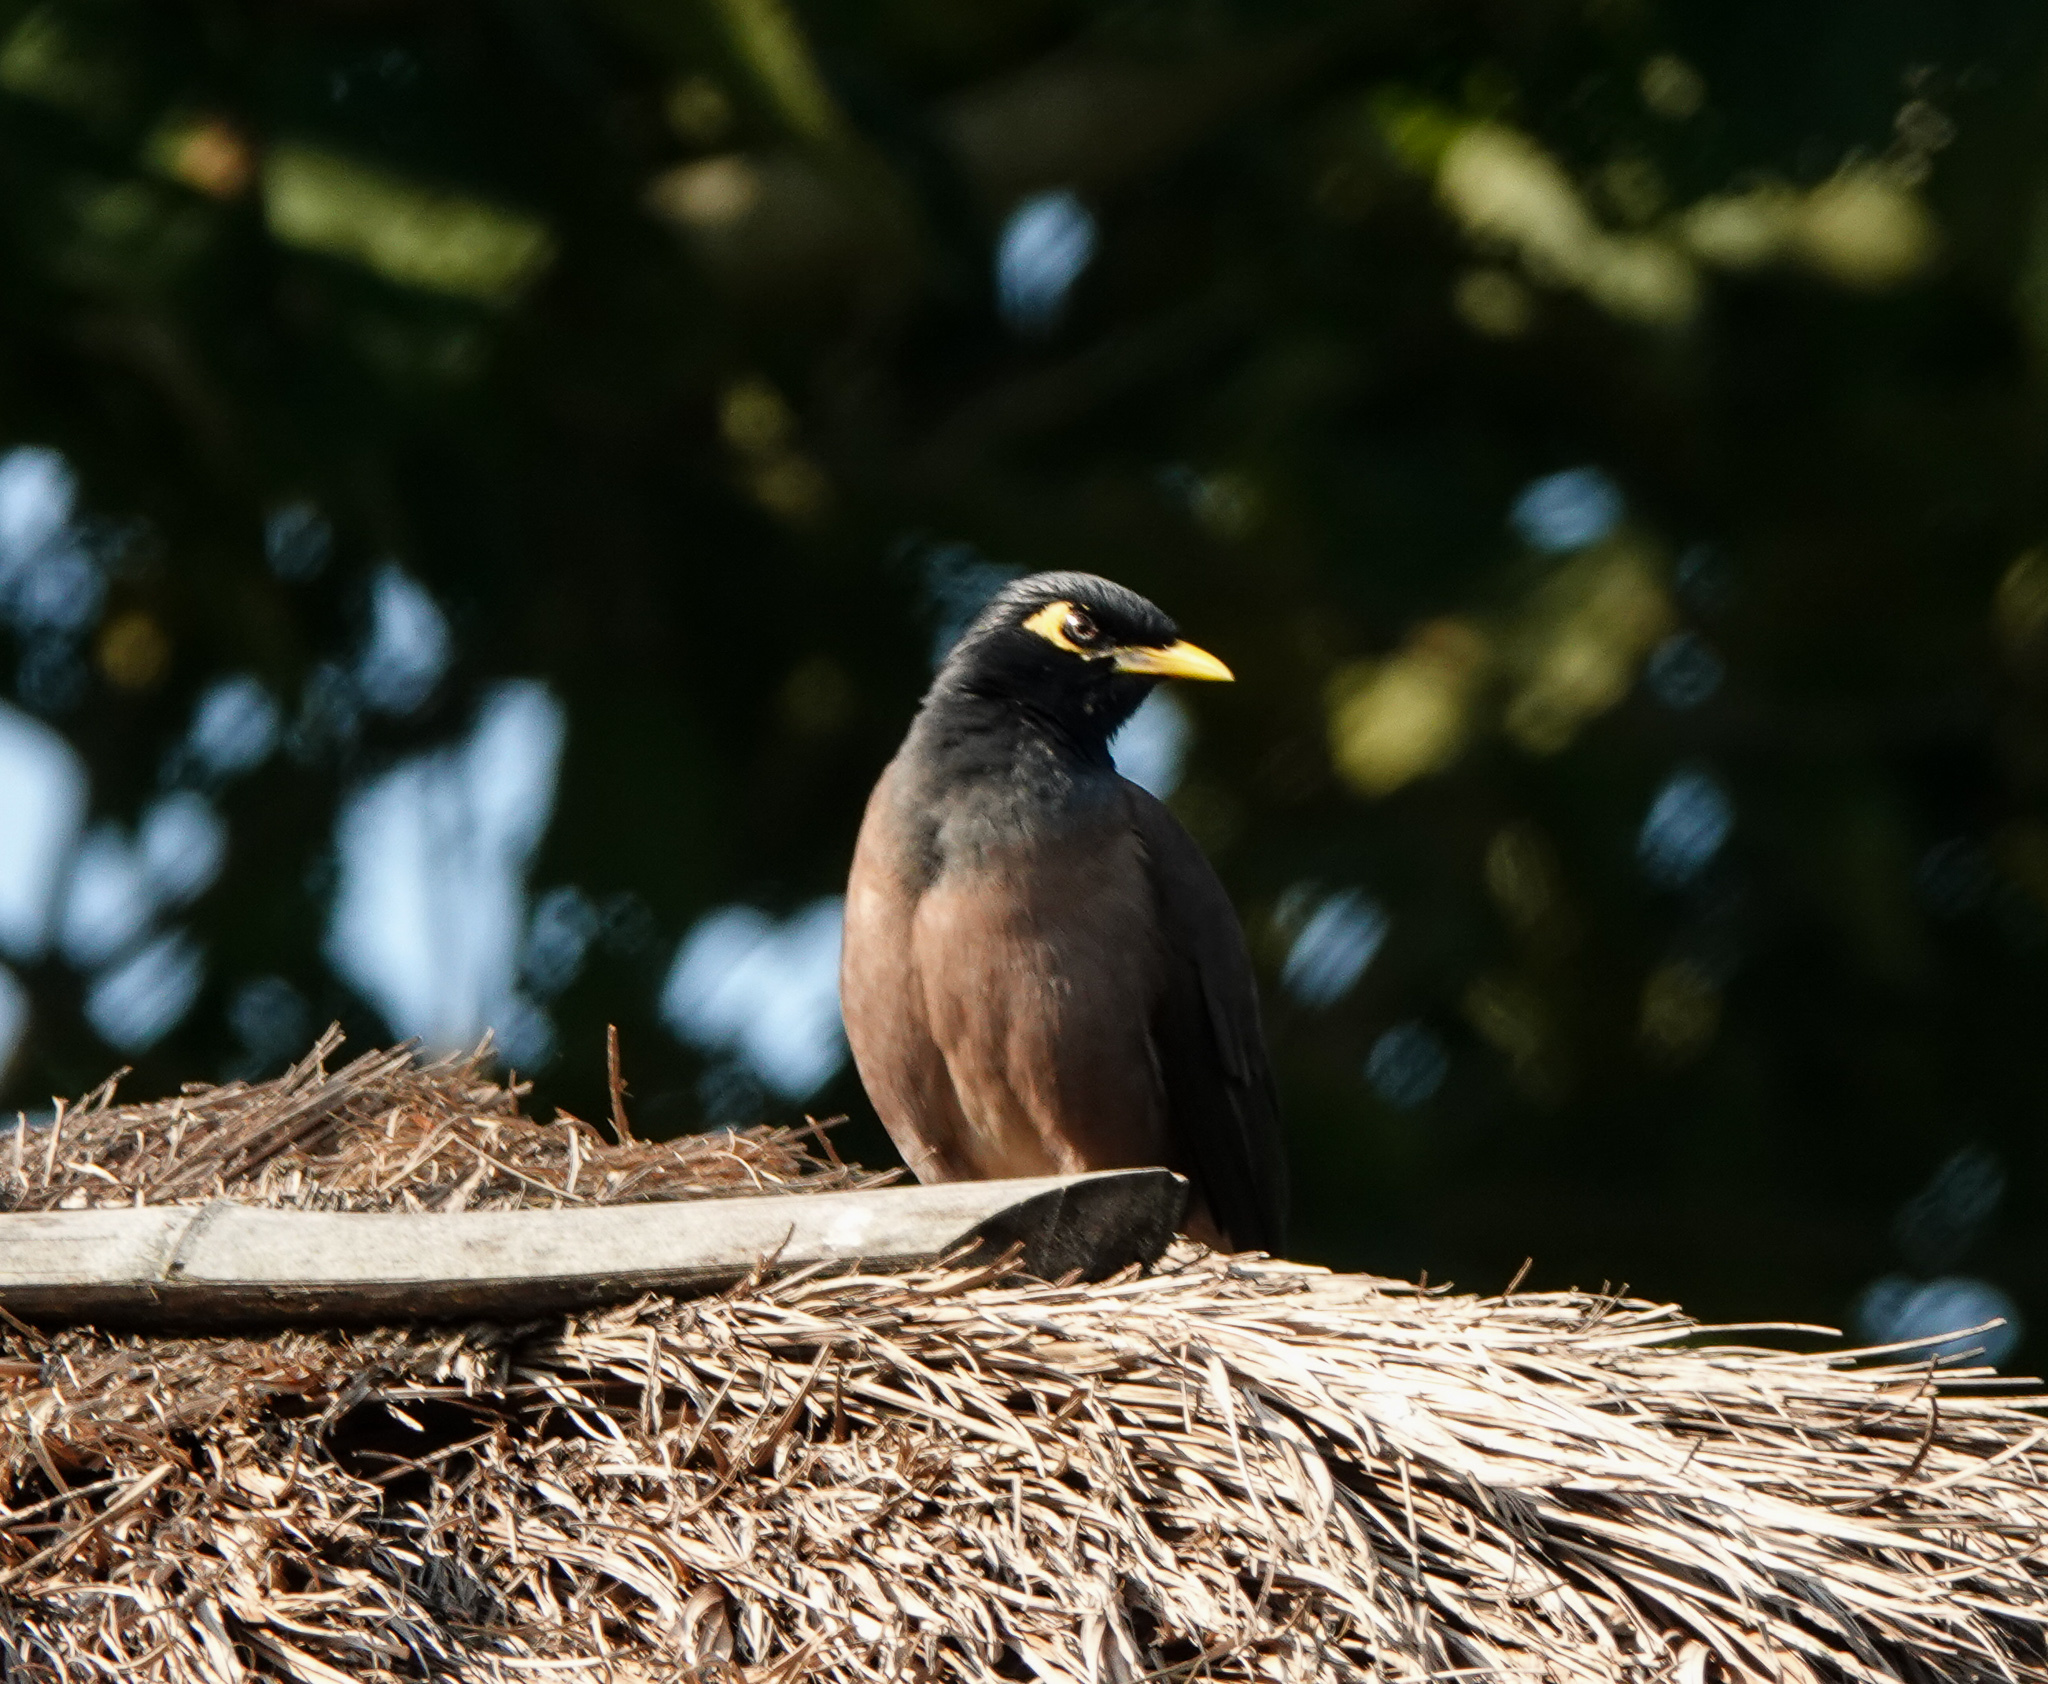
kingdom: Animalia
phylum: Chordata
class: Aves
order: Passeriformes
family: Sturnidae
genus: Acridotheres
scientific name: Acridotheres tristis
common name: Common myna
